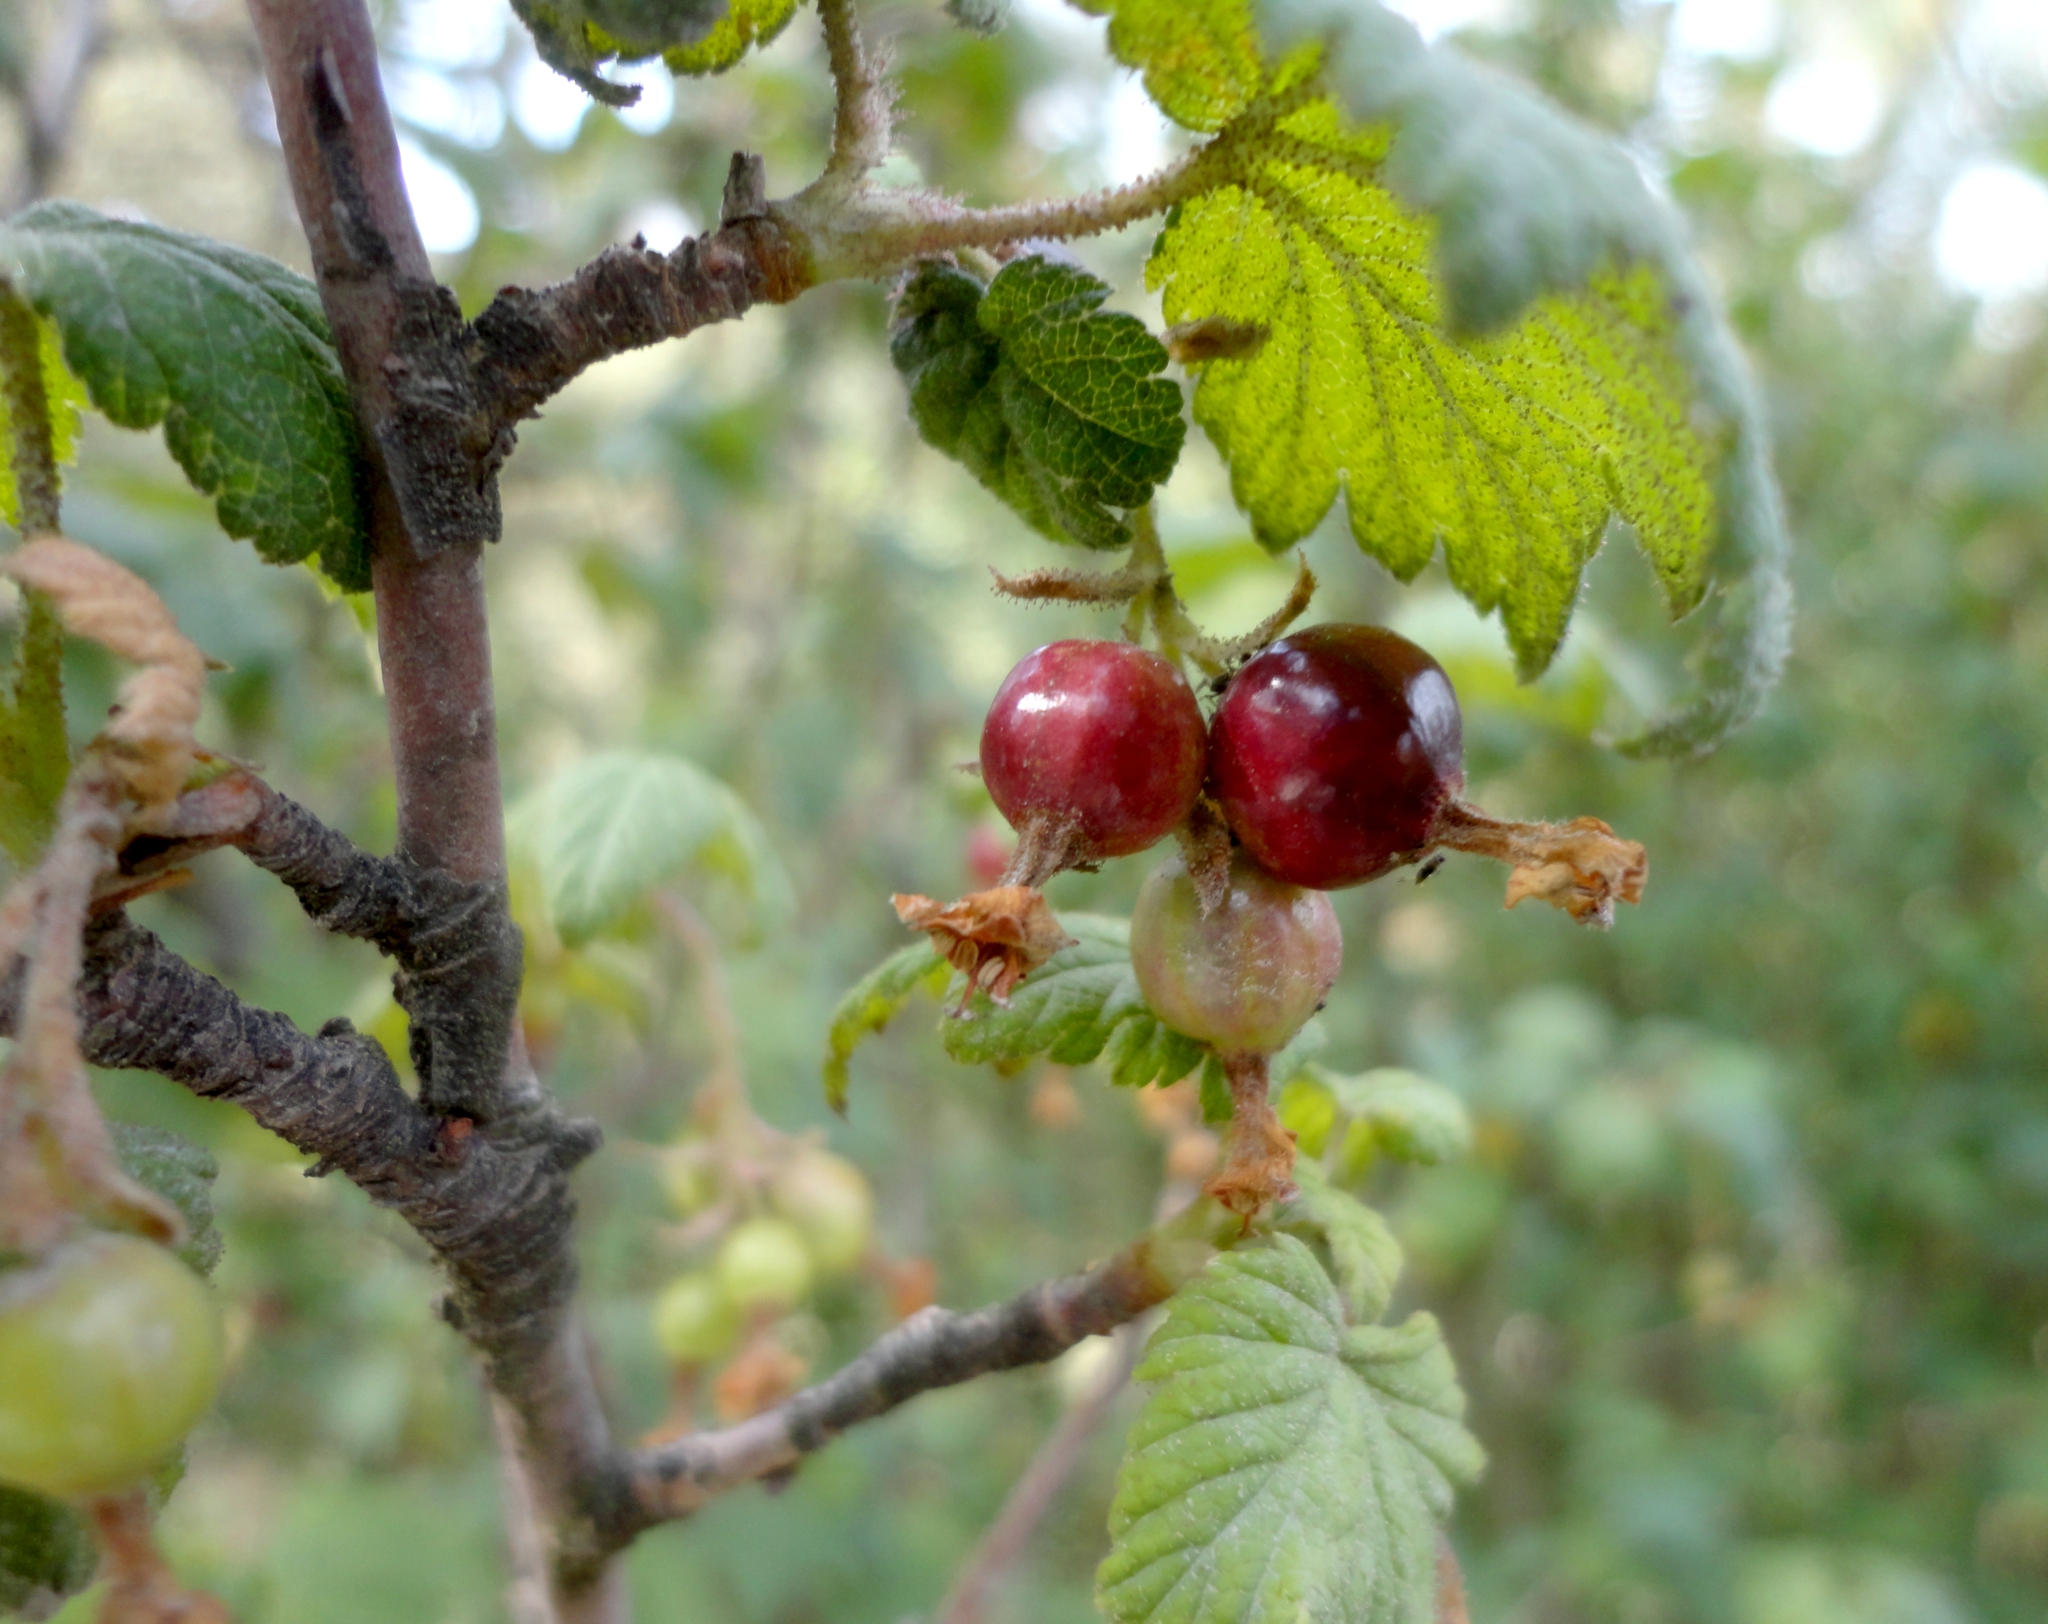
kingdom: Plantae
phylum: Tracheophyta
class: Magnoliopsida
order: Saxifragales
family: Grossulariaceae
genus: Ribes
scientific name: Ribes ciliatum
